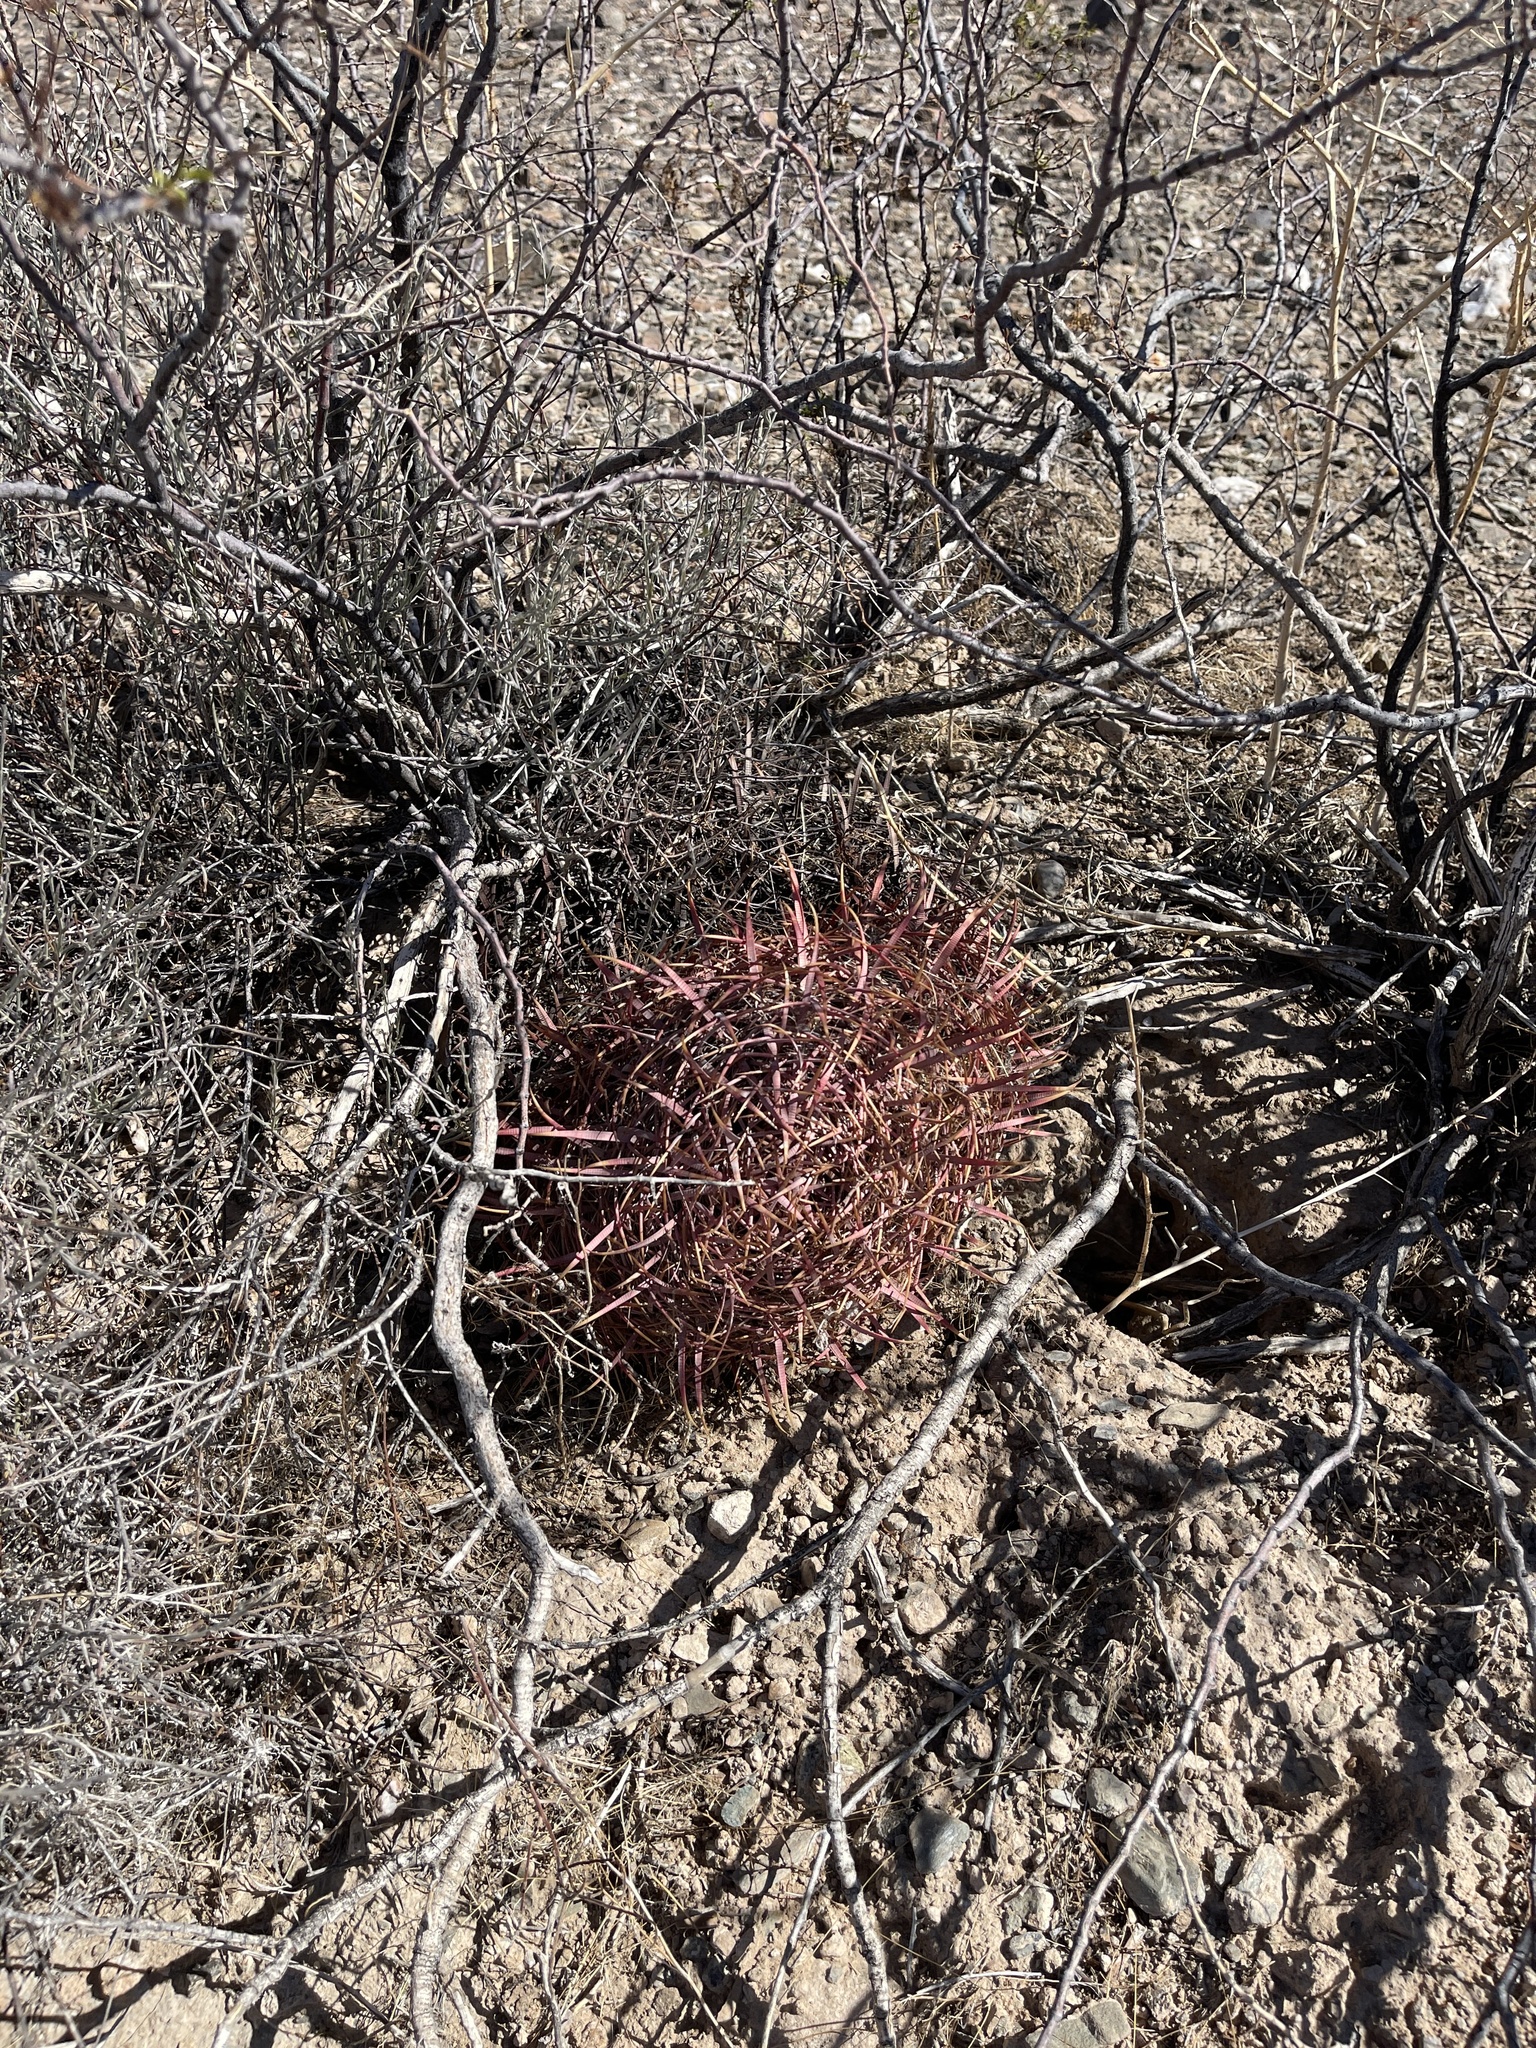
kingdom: Plantae
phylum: Tracheophyta
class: Magnoliopsida
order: Caryophyllales
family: Cactaceae
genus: Ferocactus
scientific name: Ferocactus cylindraceus
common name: California barrel cactus
